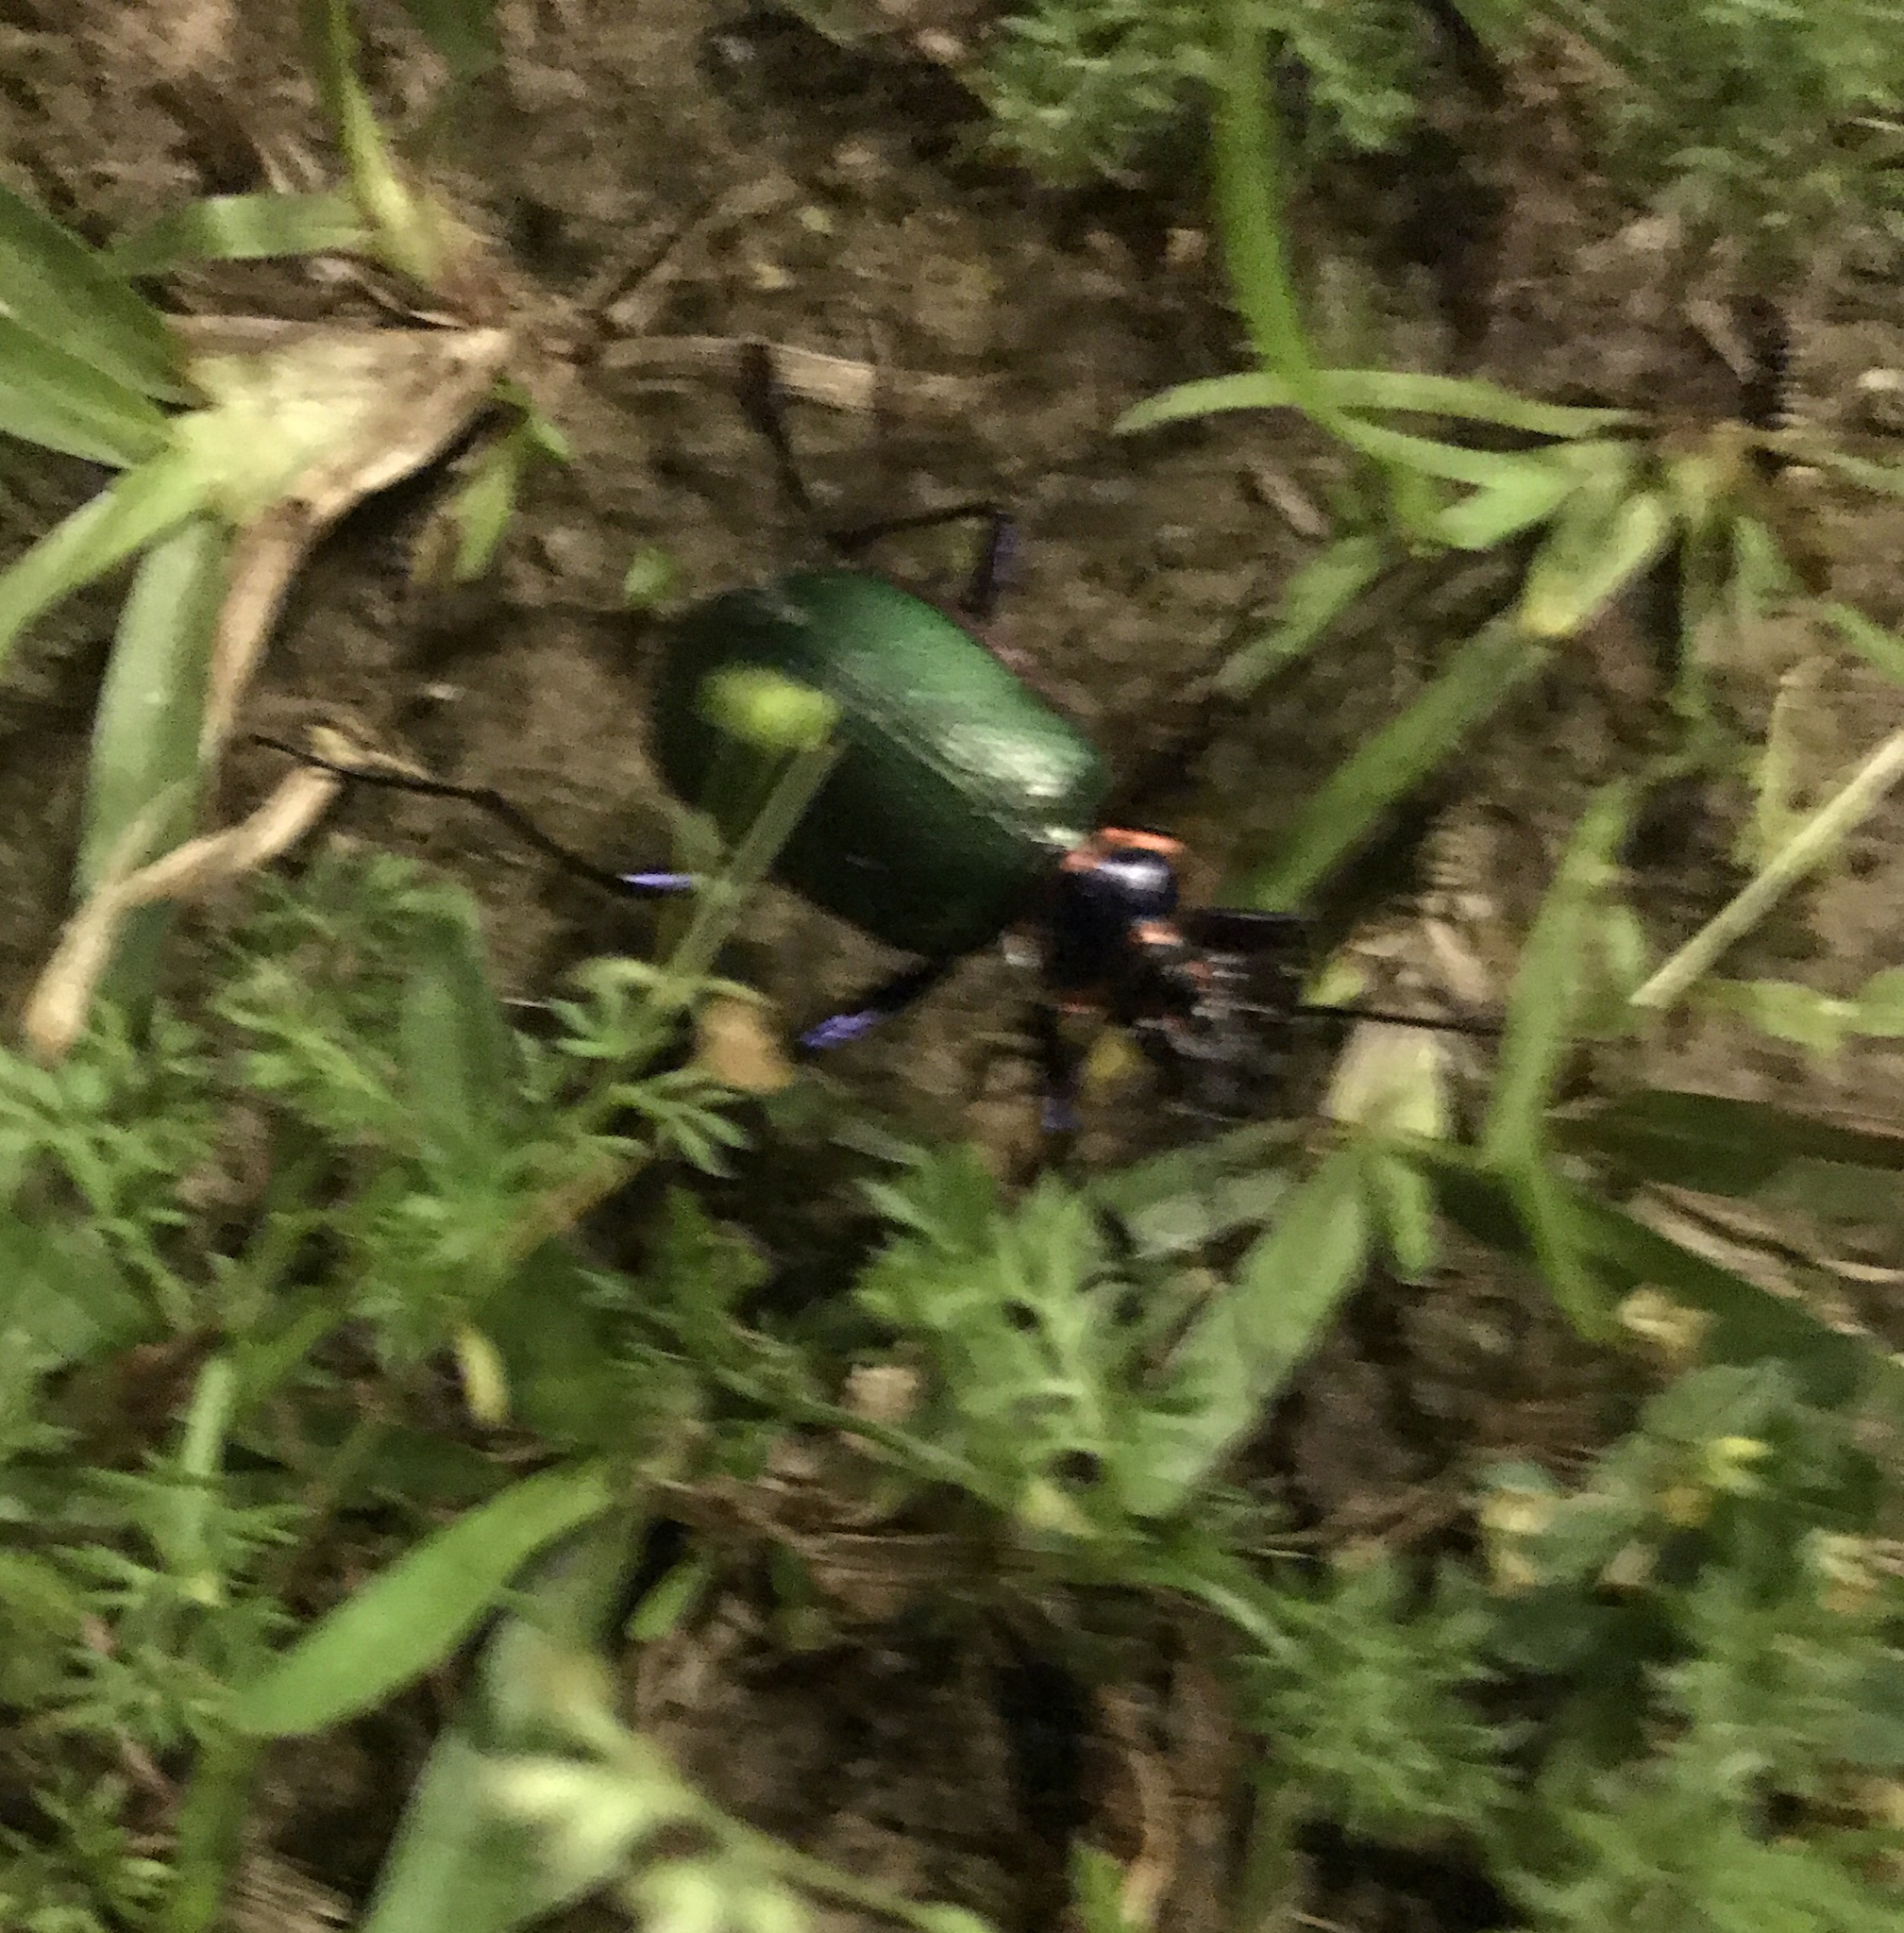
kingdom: Animalia
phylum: Arthropoda
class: Insecta
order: Coleoptera
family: Carabidae
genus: Calosoma
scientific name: Calosoma scrutator
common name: Fiery searcher beetle
